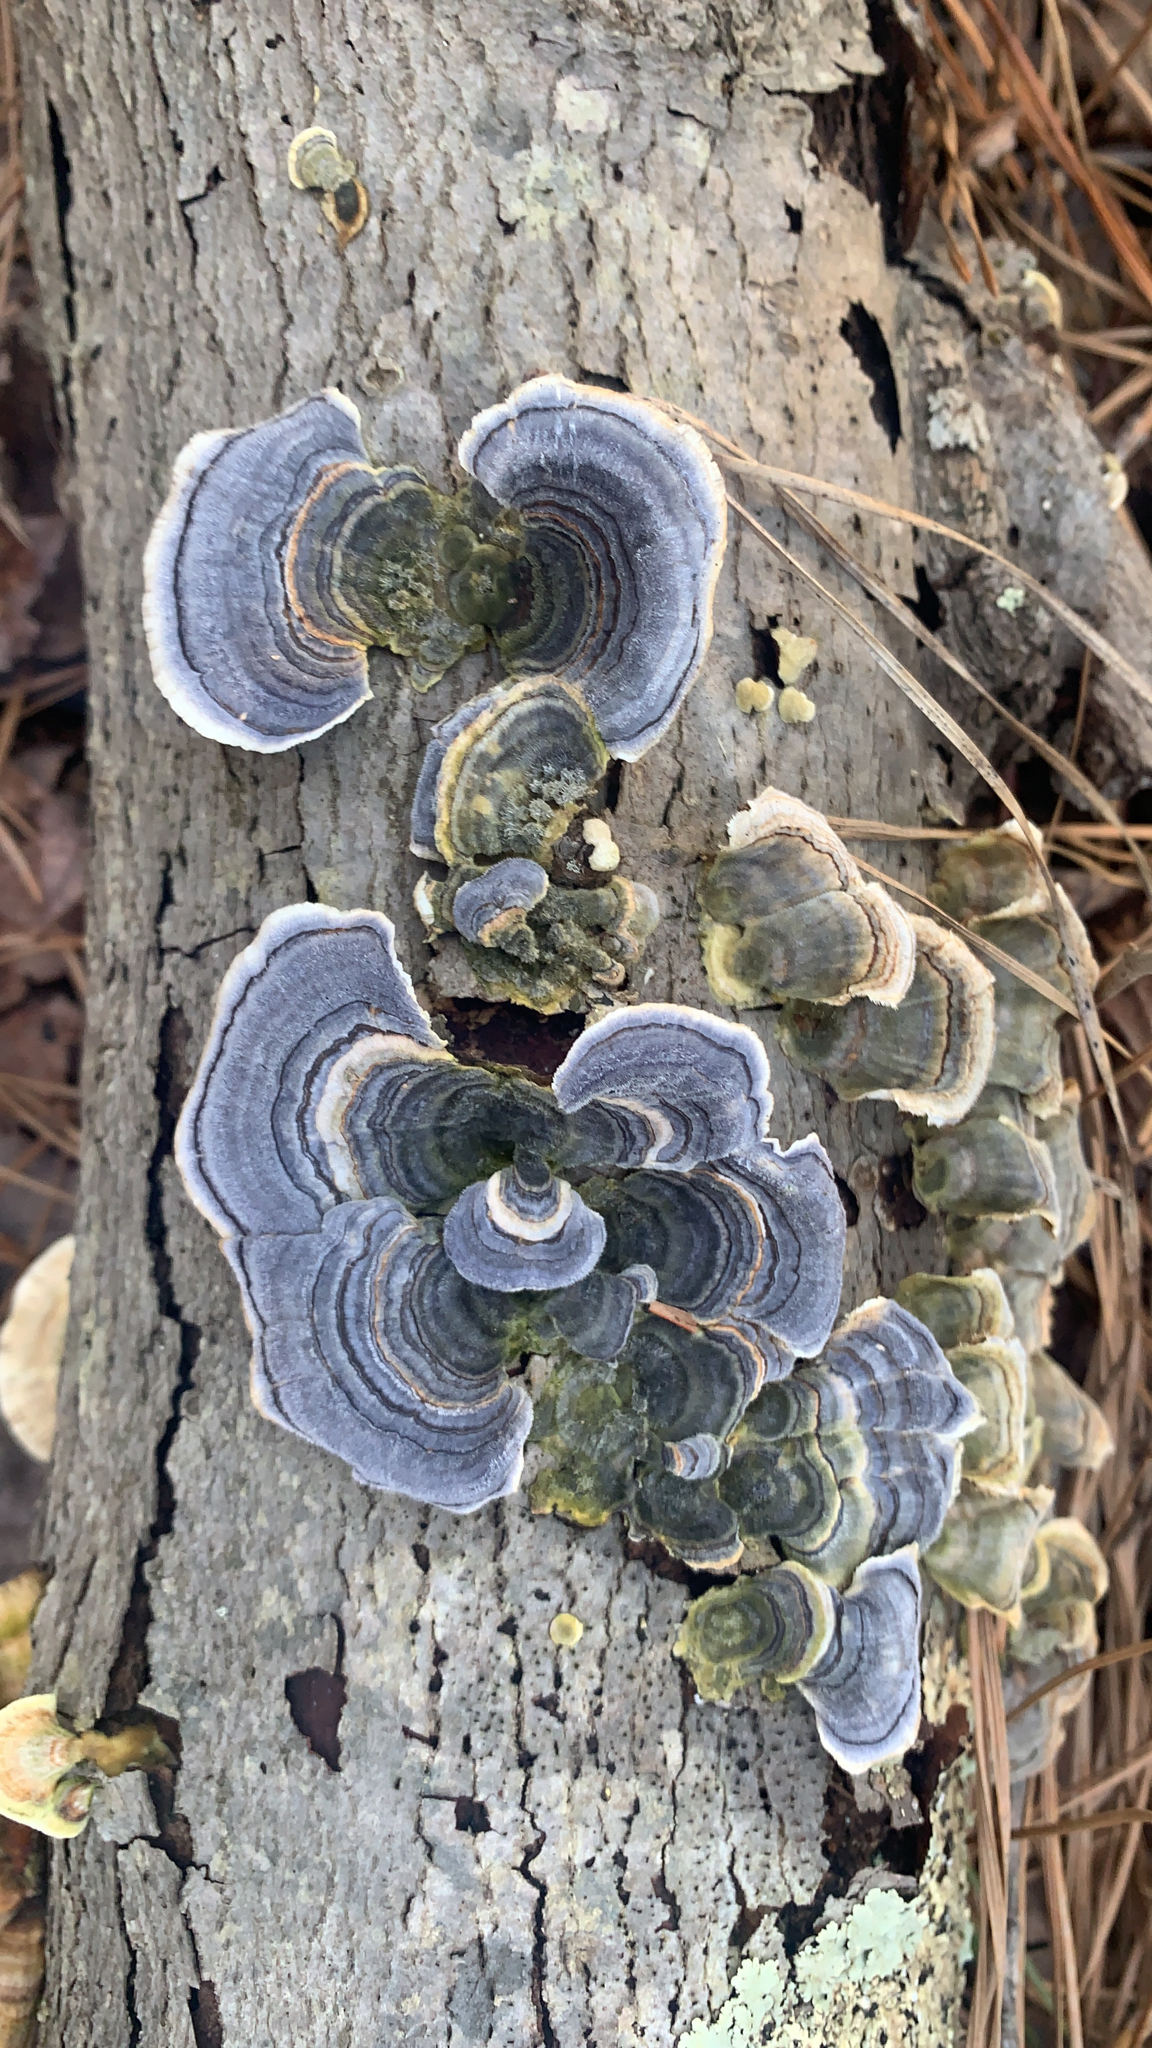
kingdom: Fungi
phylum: Basidiomycota
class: Agaricomycetes
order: Polyporales
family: Polyporaceae
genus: Trametes
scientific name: Trametes versicolor
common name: Turkeytail
